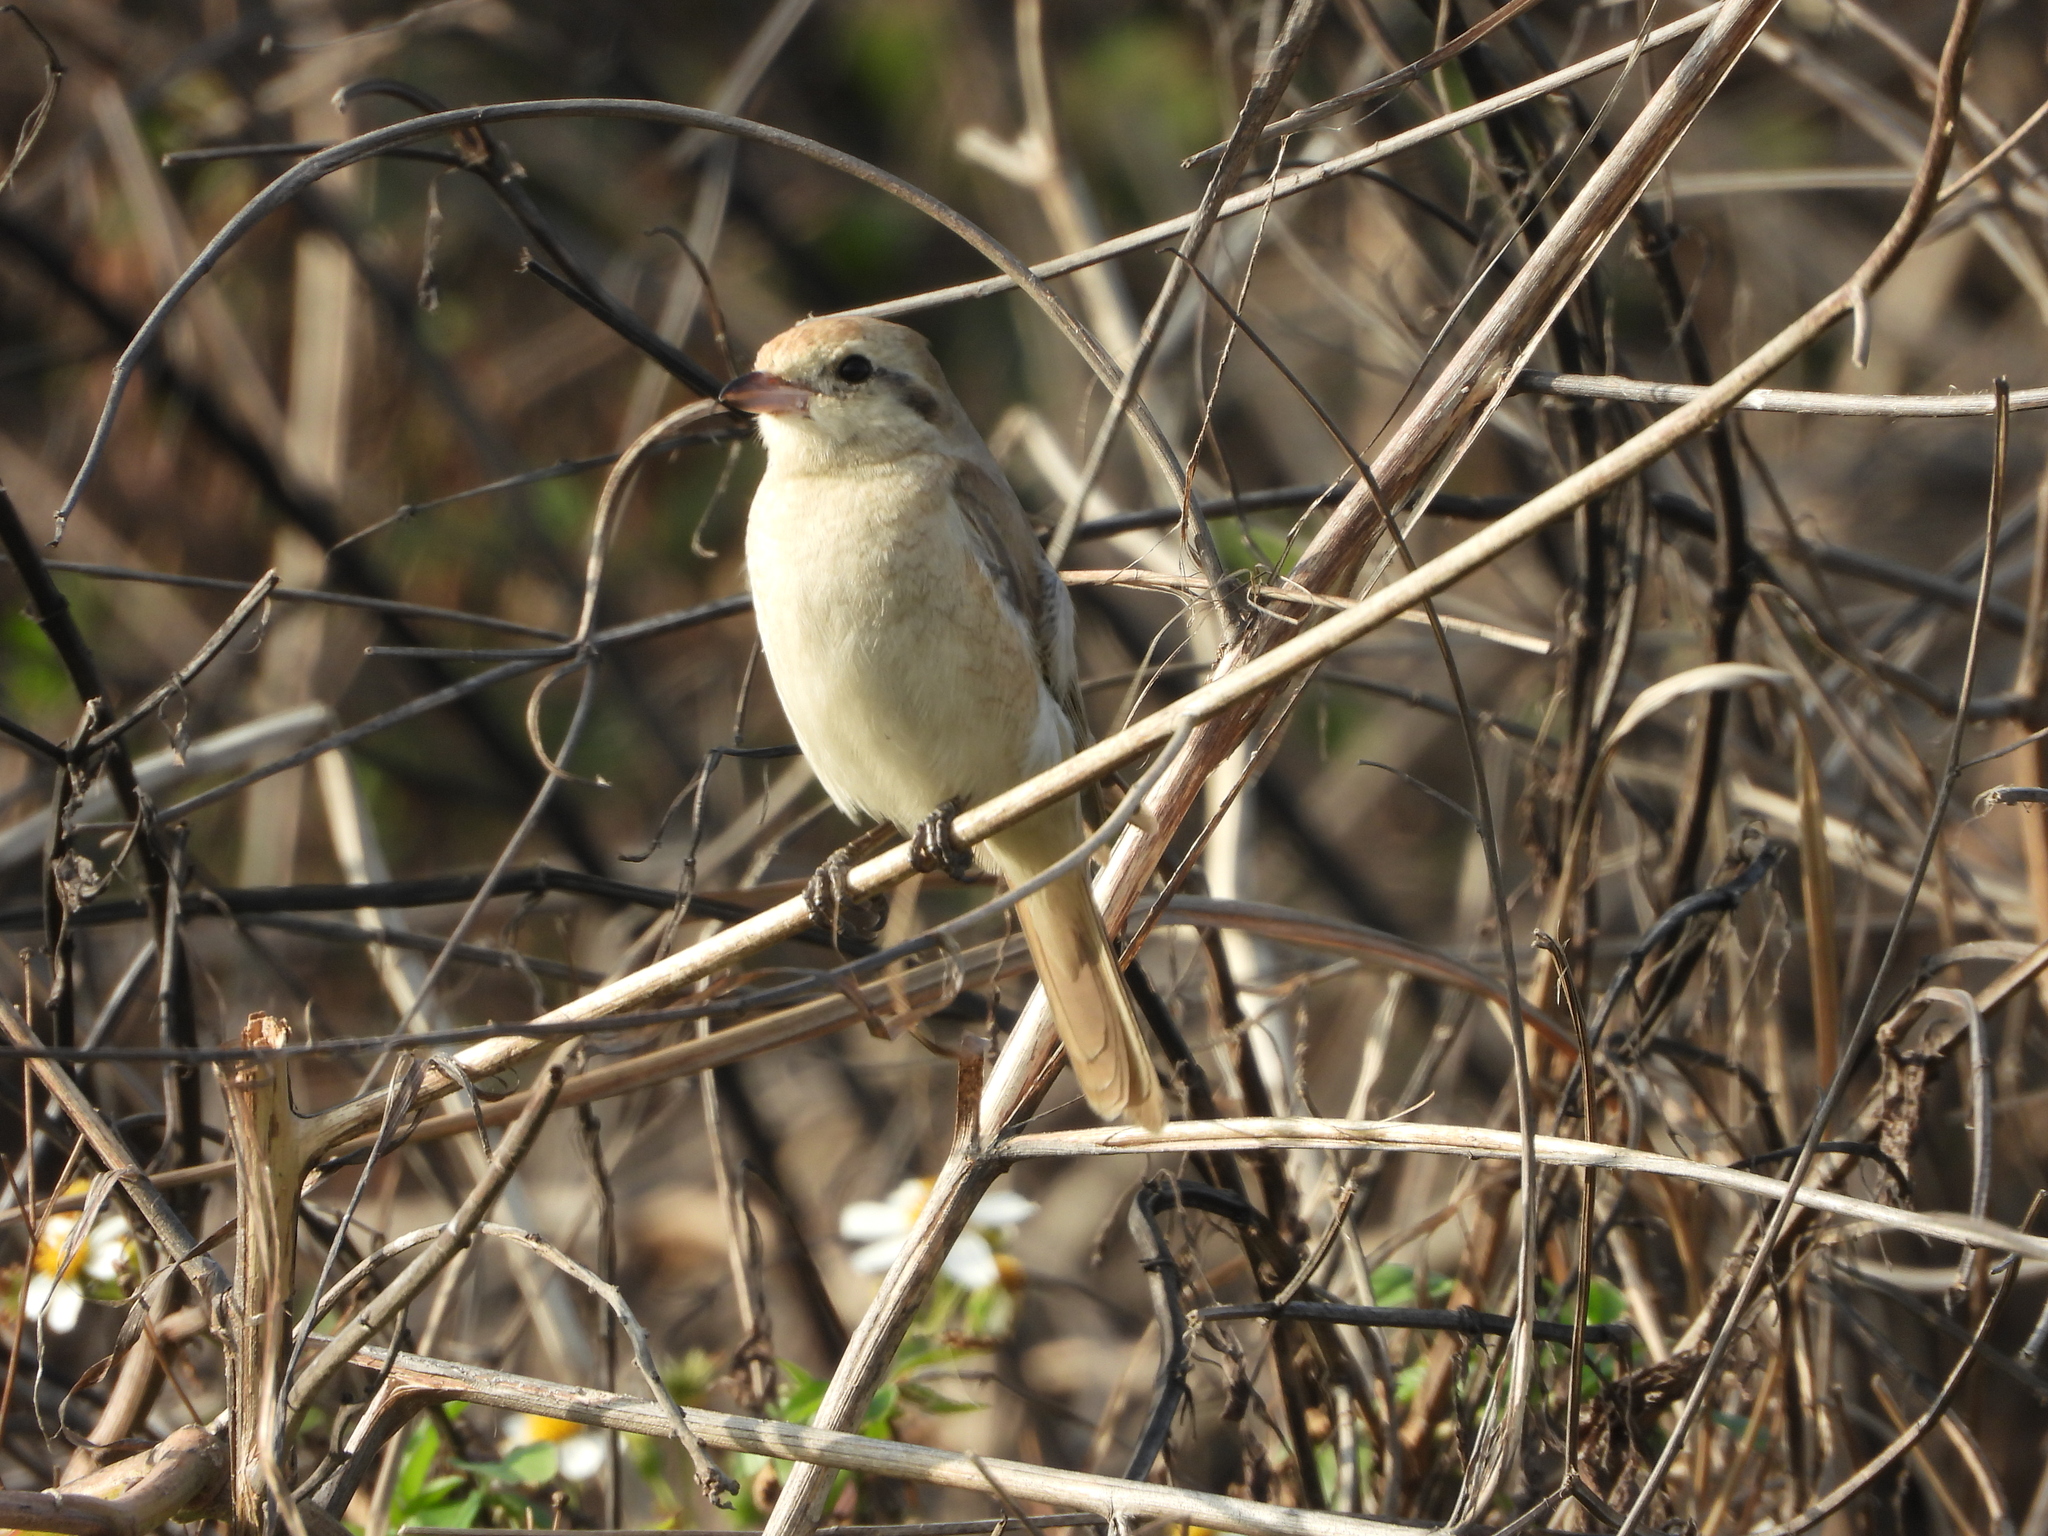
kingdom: Animalia
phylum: Chordata
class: Aves
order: Passeriformes
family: Laniidae
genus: Lanius
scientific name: Lanius isabellinus
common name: Isabelline shrike
